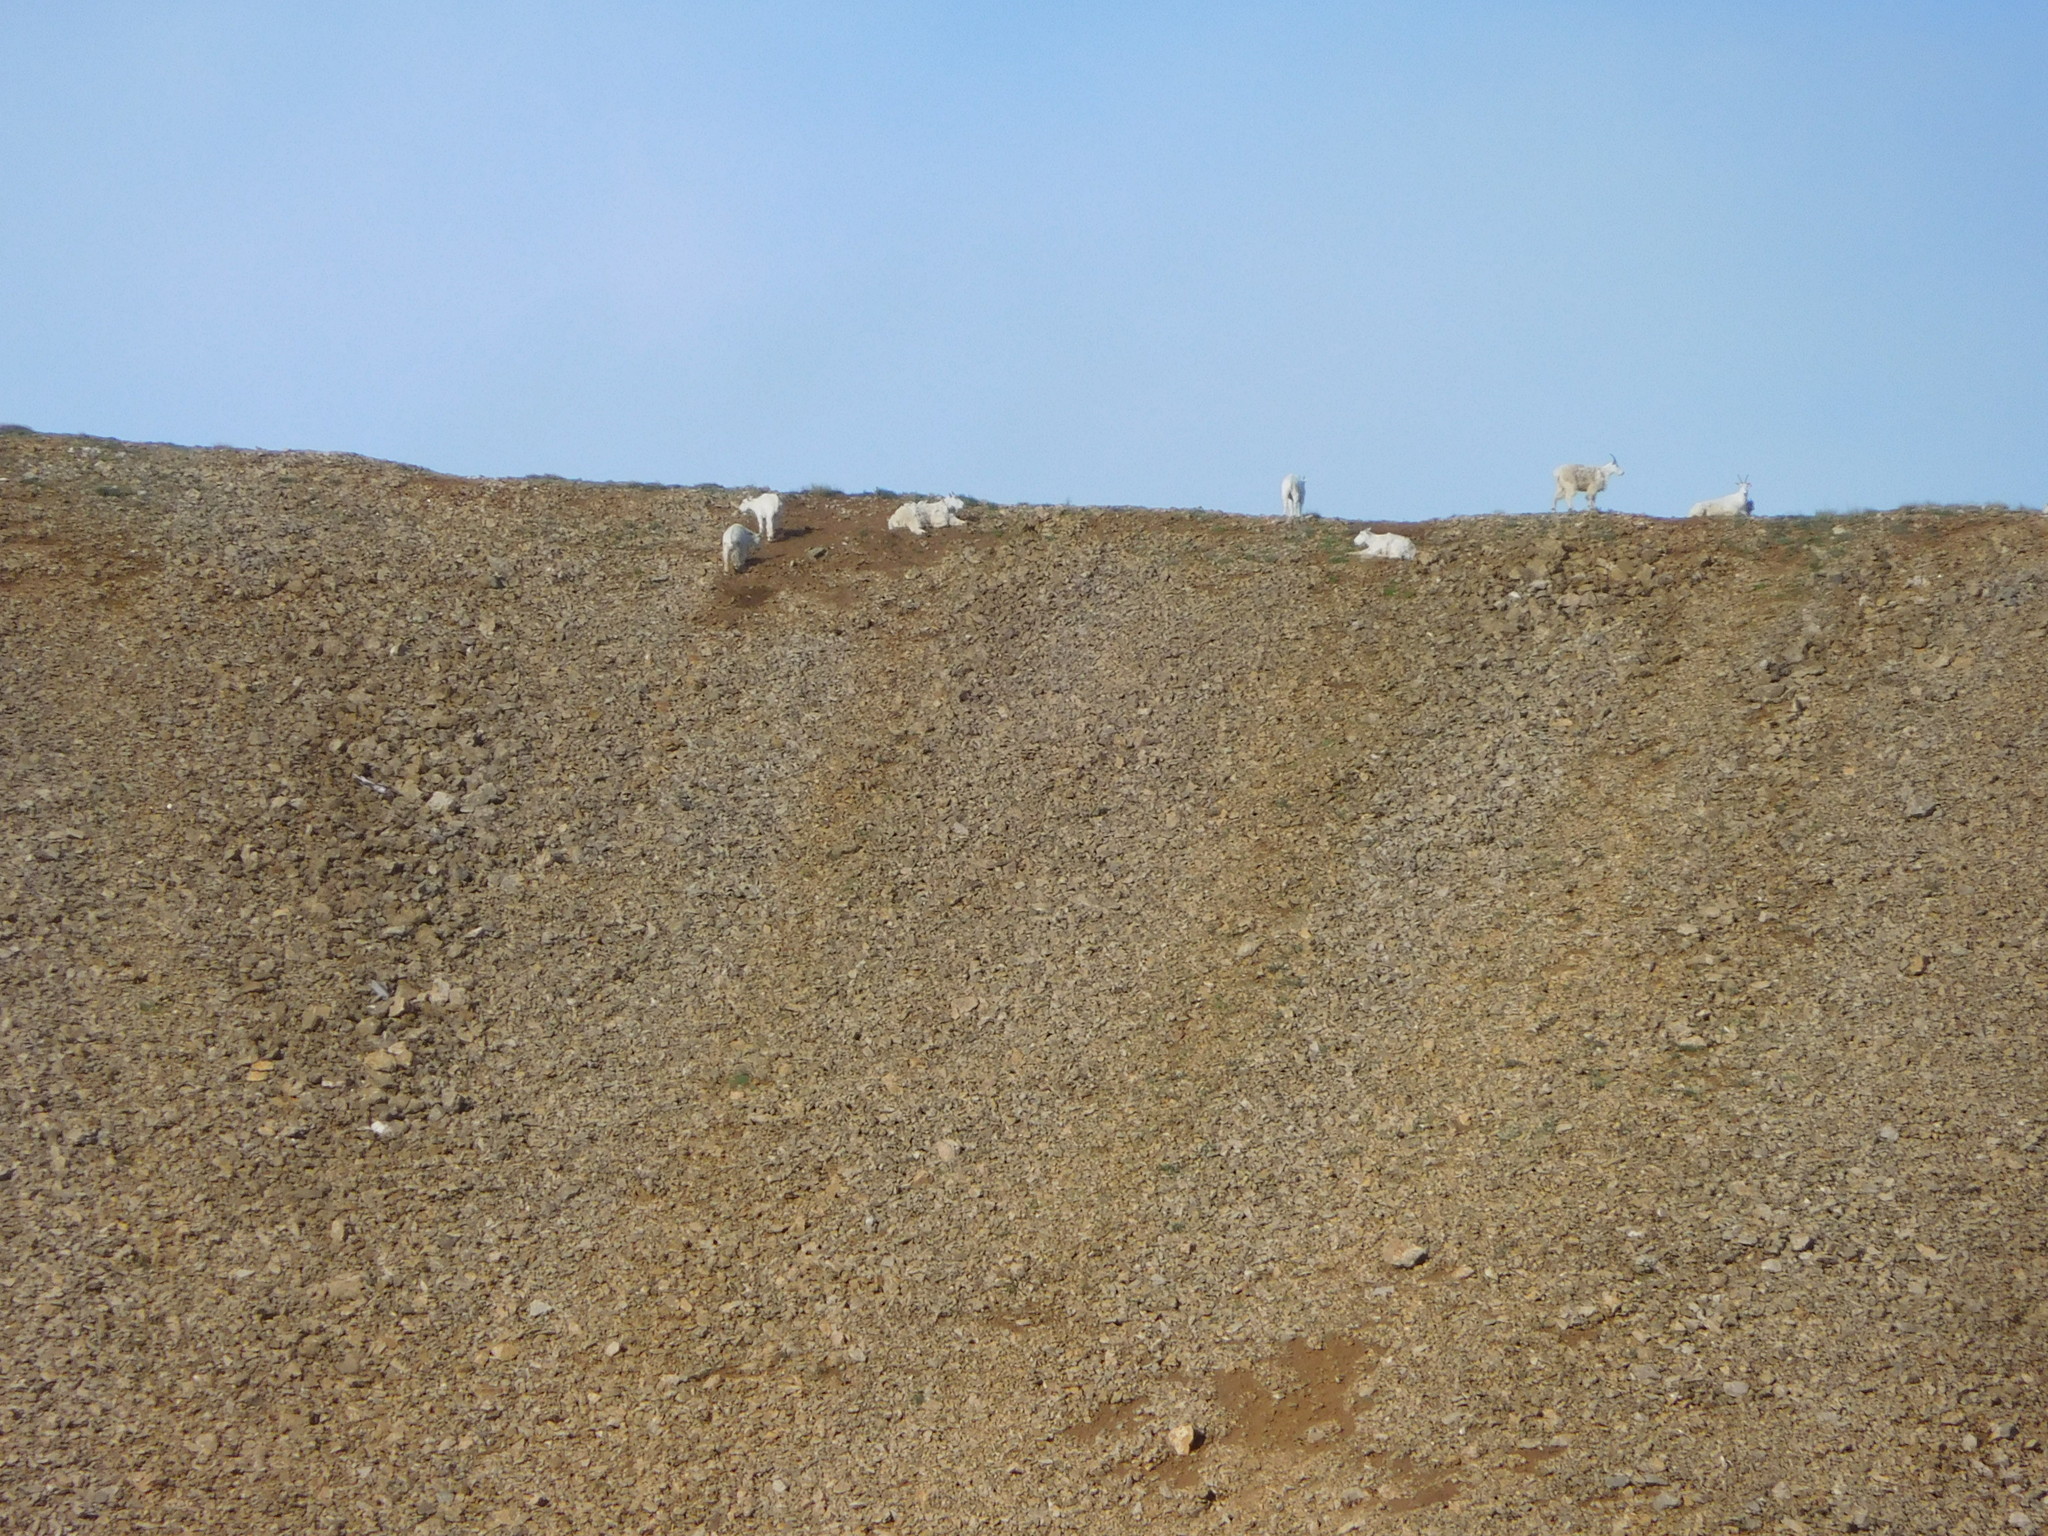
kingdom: Animalia
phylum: Chordata
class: Mammalia
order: Artiodactyla
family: Bovidae
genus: Oreamnos
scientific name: Oreamnos americanus
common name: Mountain goat
